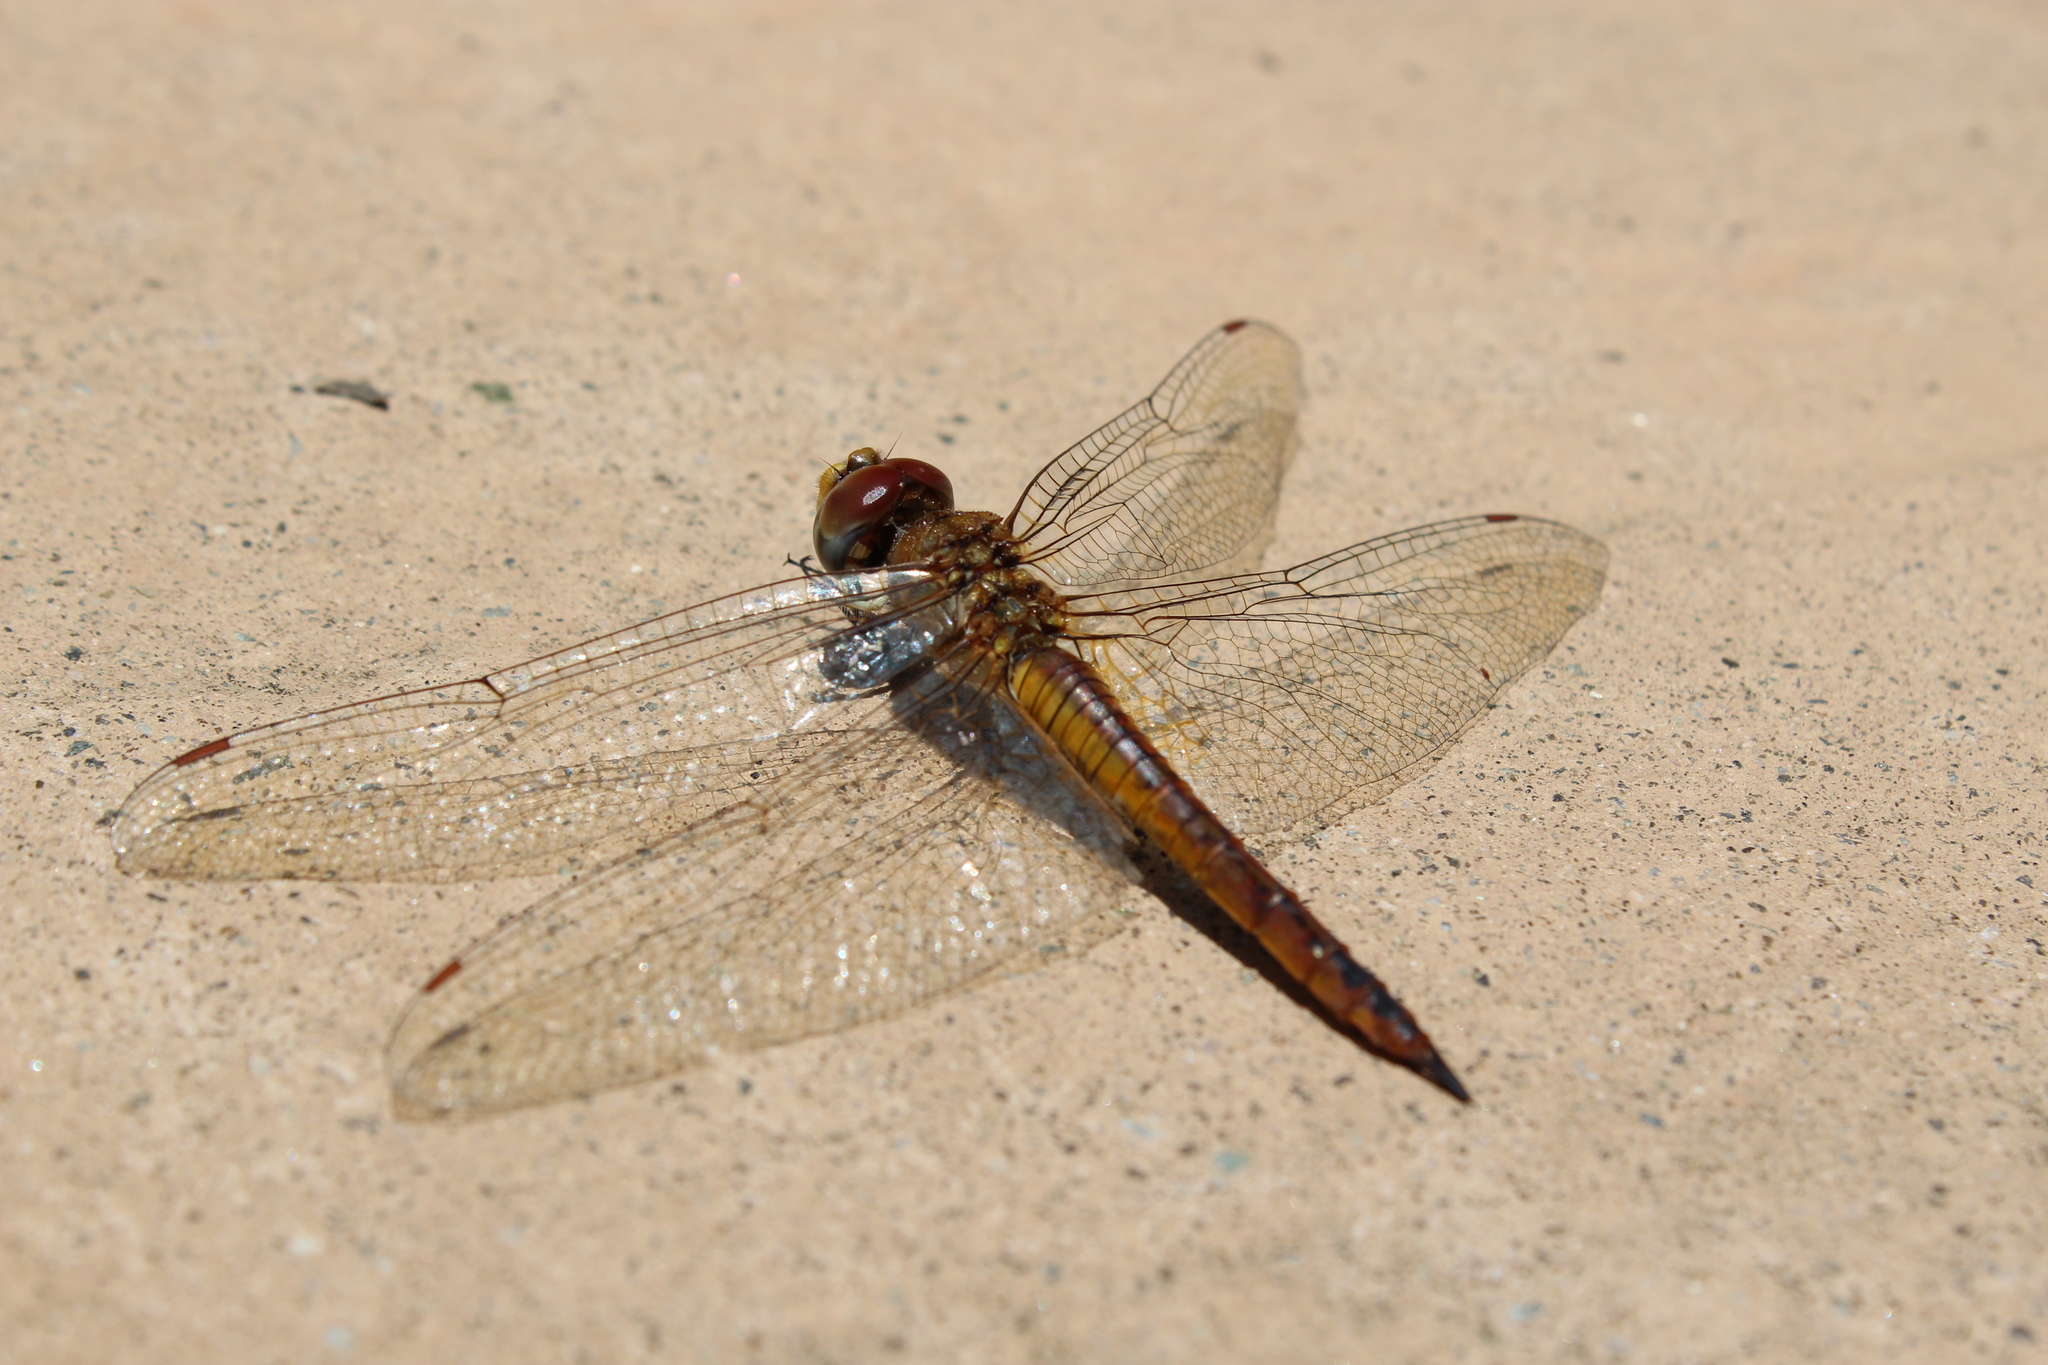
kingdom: Animalia
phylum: Arthropoda
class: Insecta
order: Odonata
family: Libellulidae
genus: Pantala
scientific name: Pantala flavescens
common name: Wandering glider
